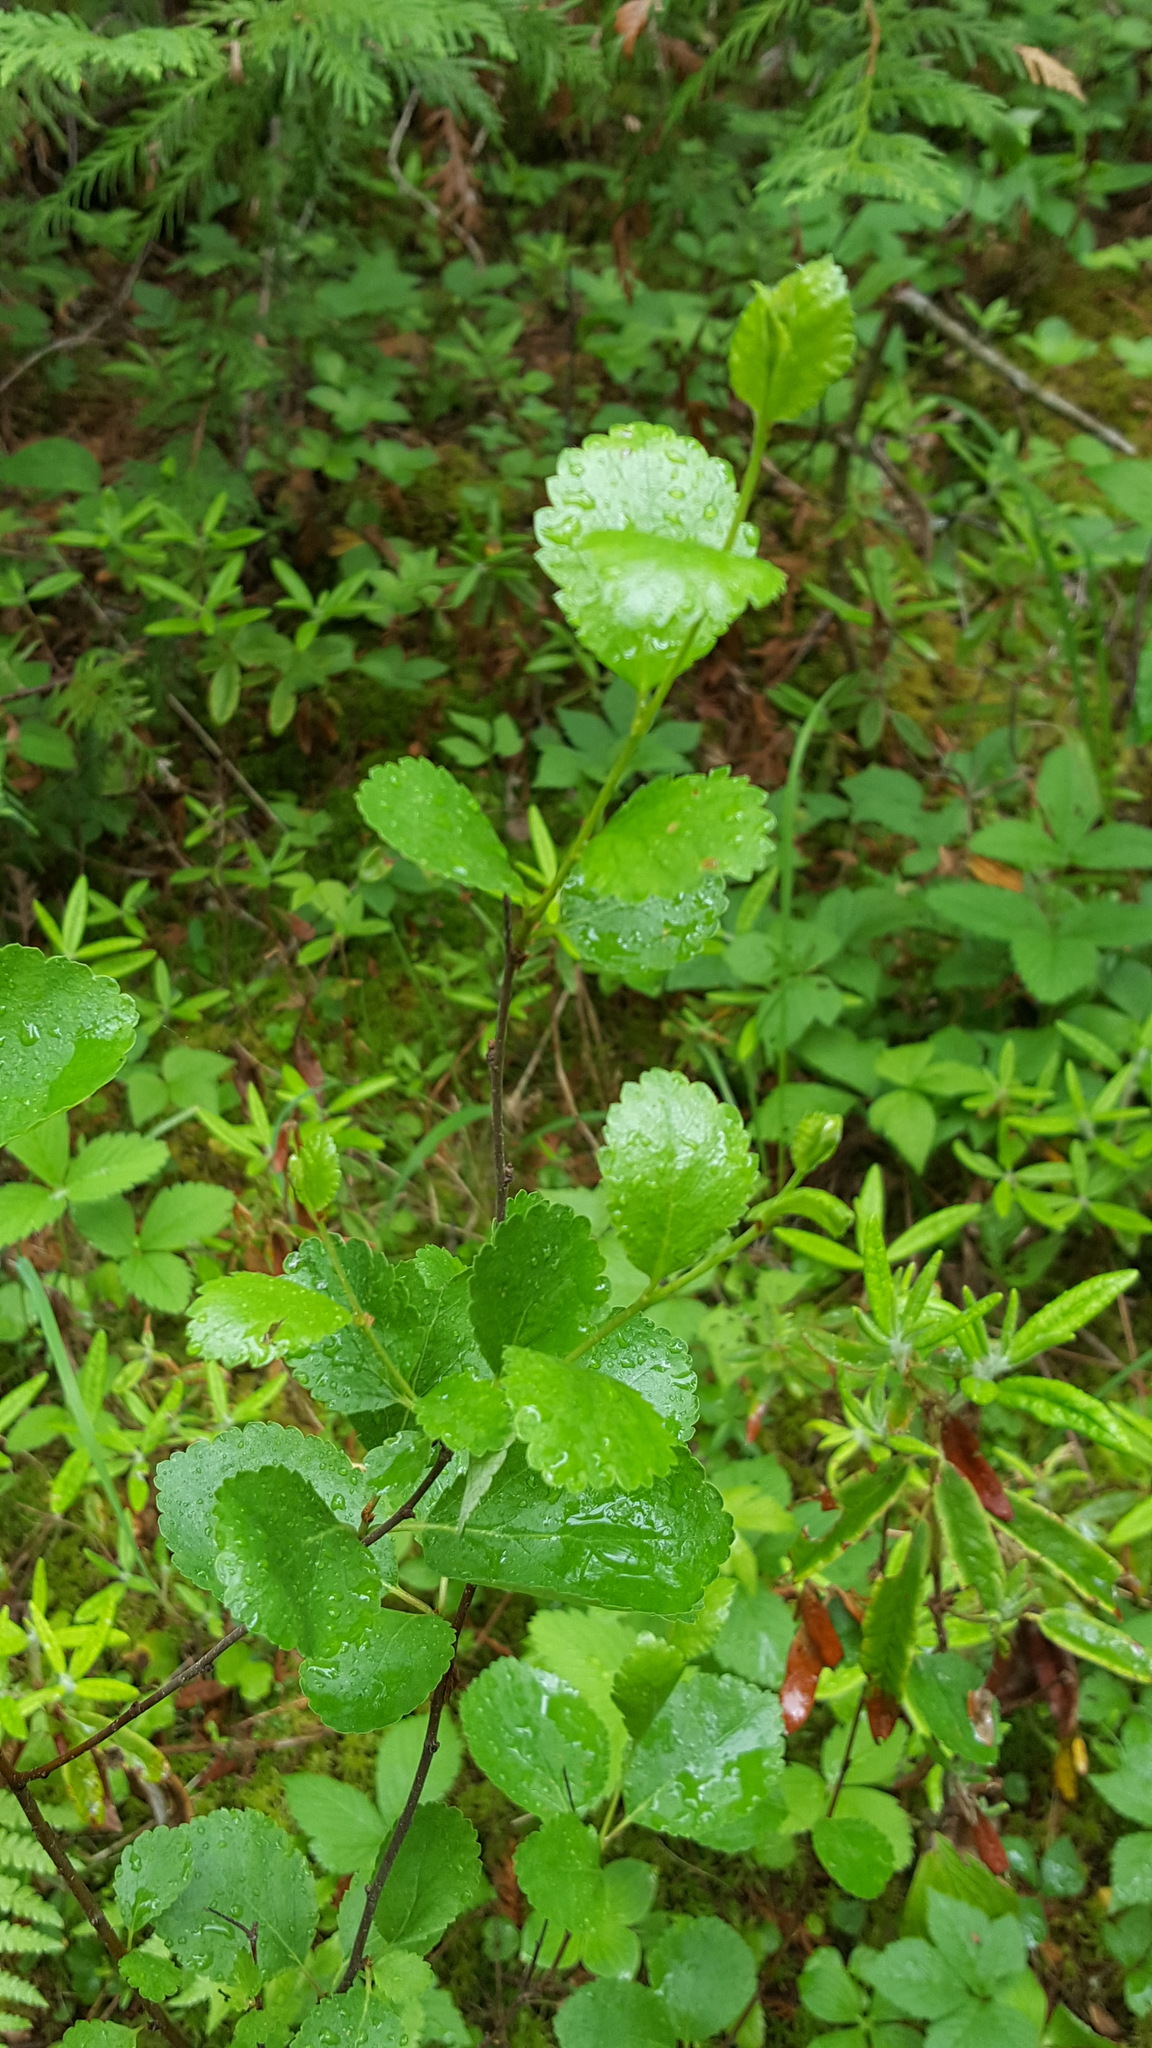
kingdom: Plantae
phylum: Tracheophyta
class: Magnoliopsida
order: Fagales
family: Betulaceae
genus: Betula
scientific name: Betula pumila
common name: Bog birch
